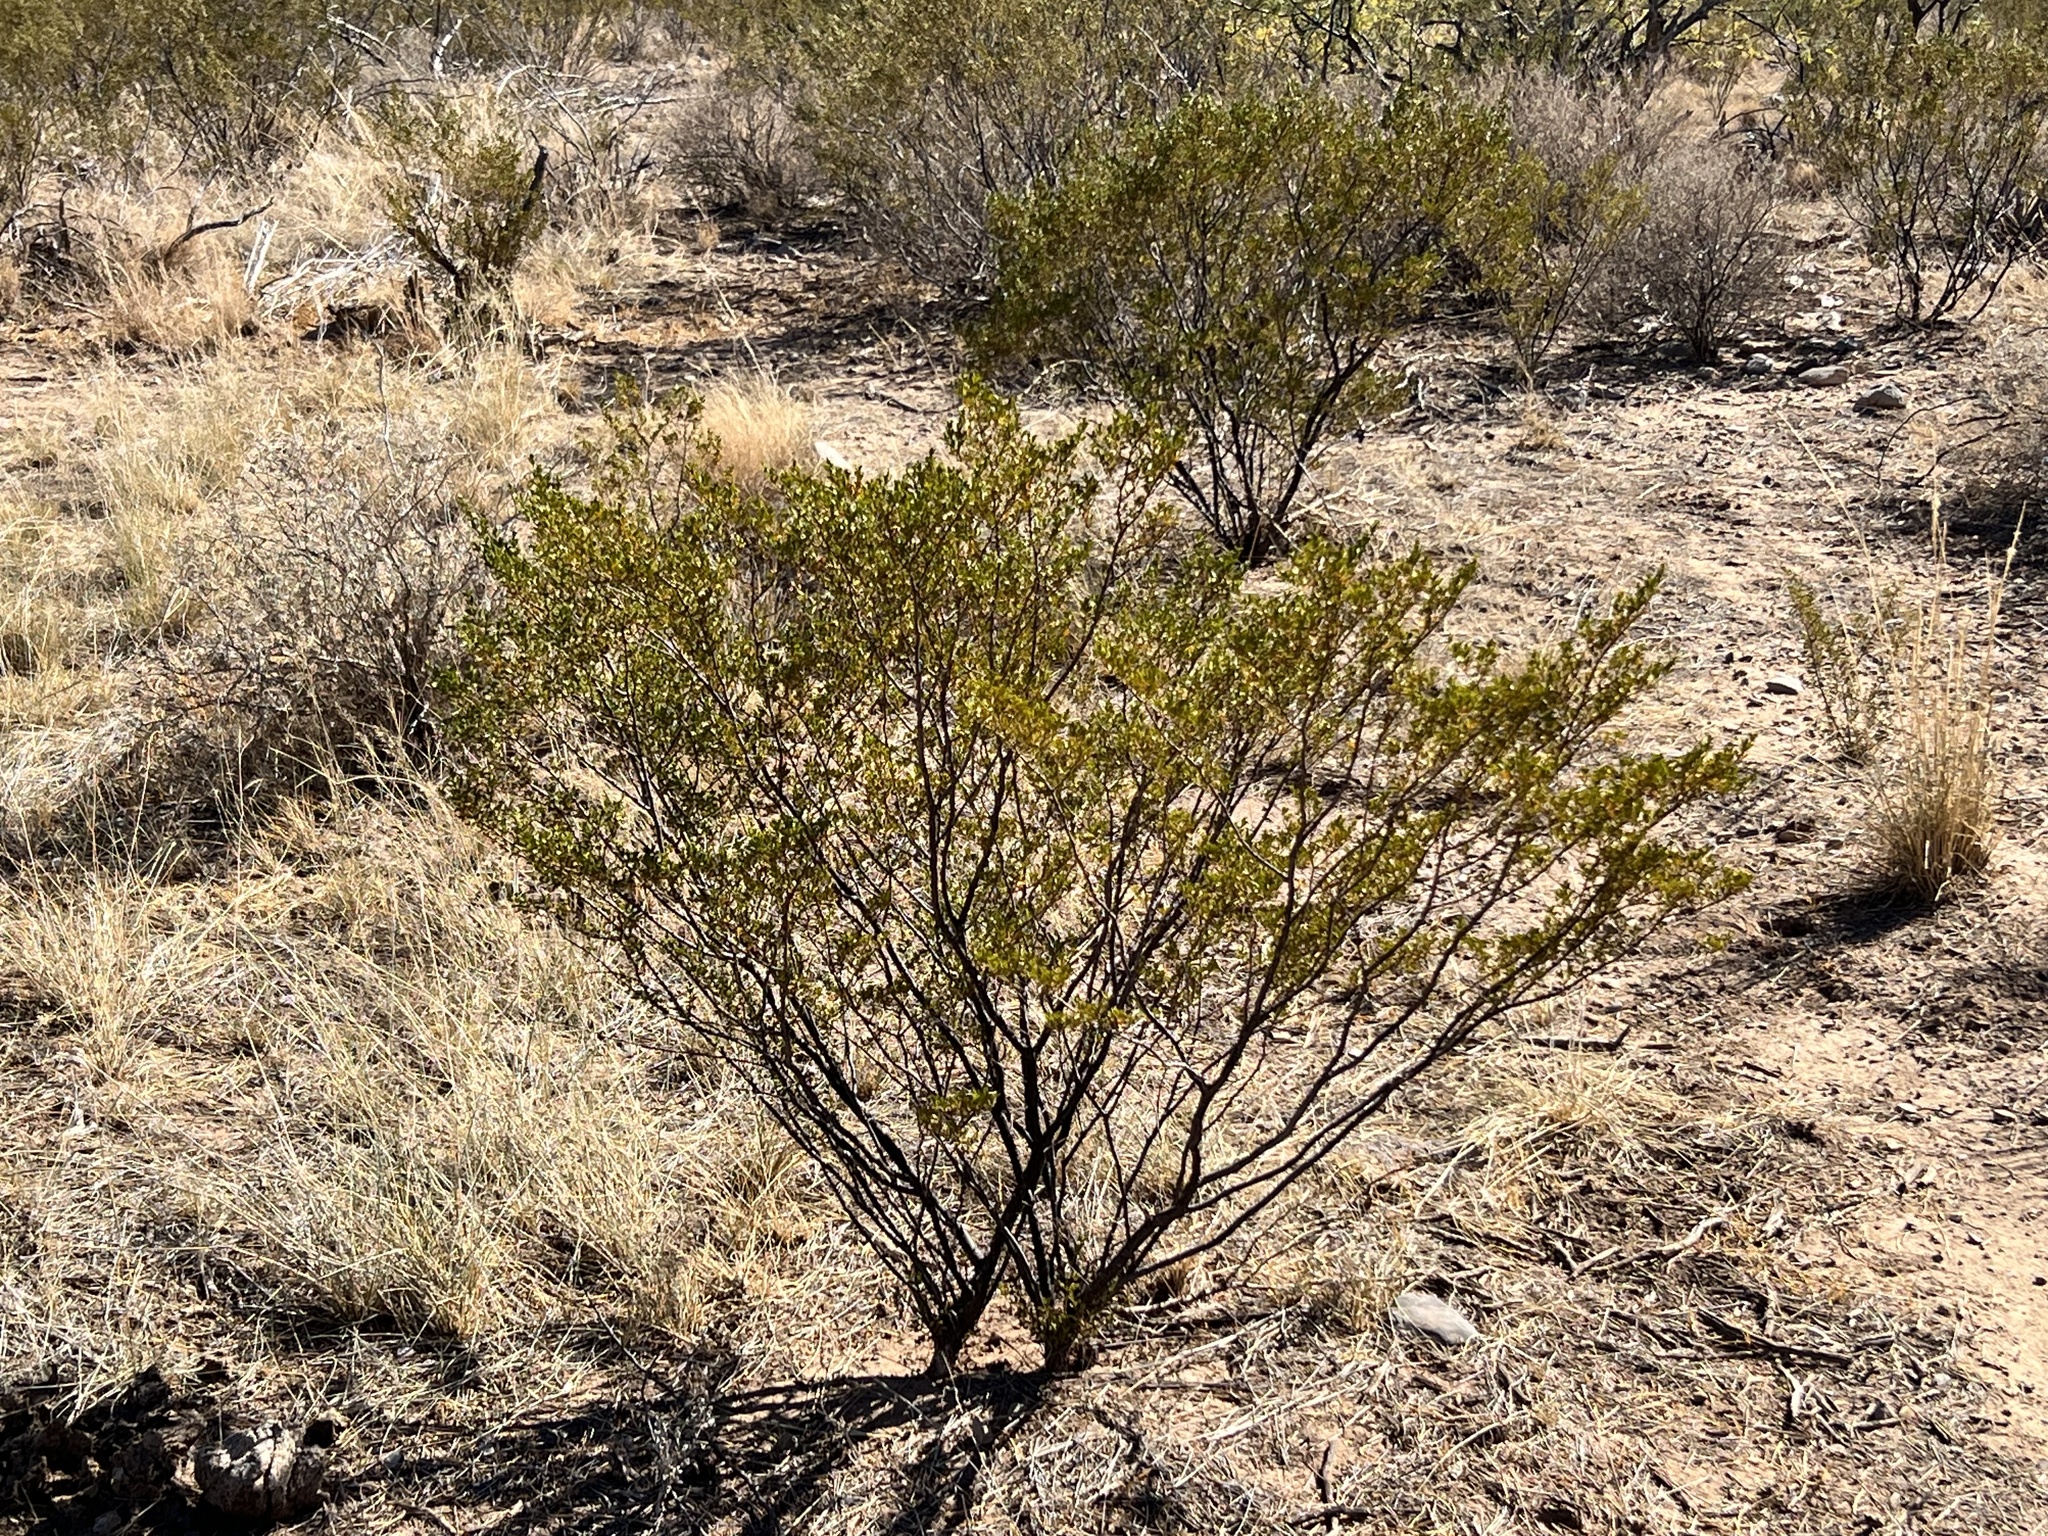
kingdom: Plantae
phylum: Tracheophyta
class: Magnoliopsida
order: Zygophyllales
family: Zygophyllaceae
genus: Larrea
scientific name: Larrea tridentata
